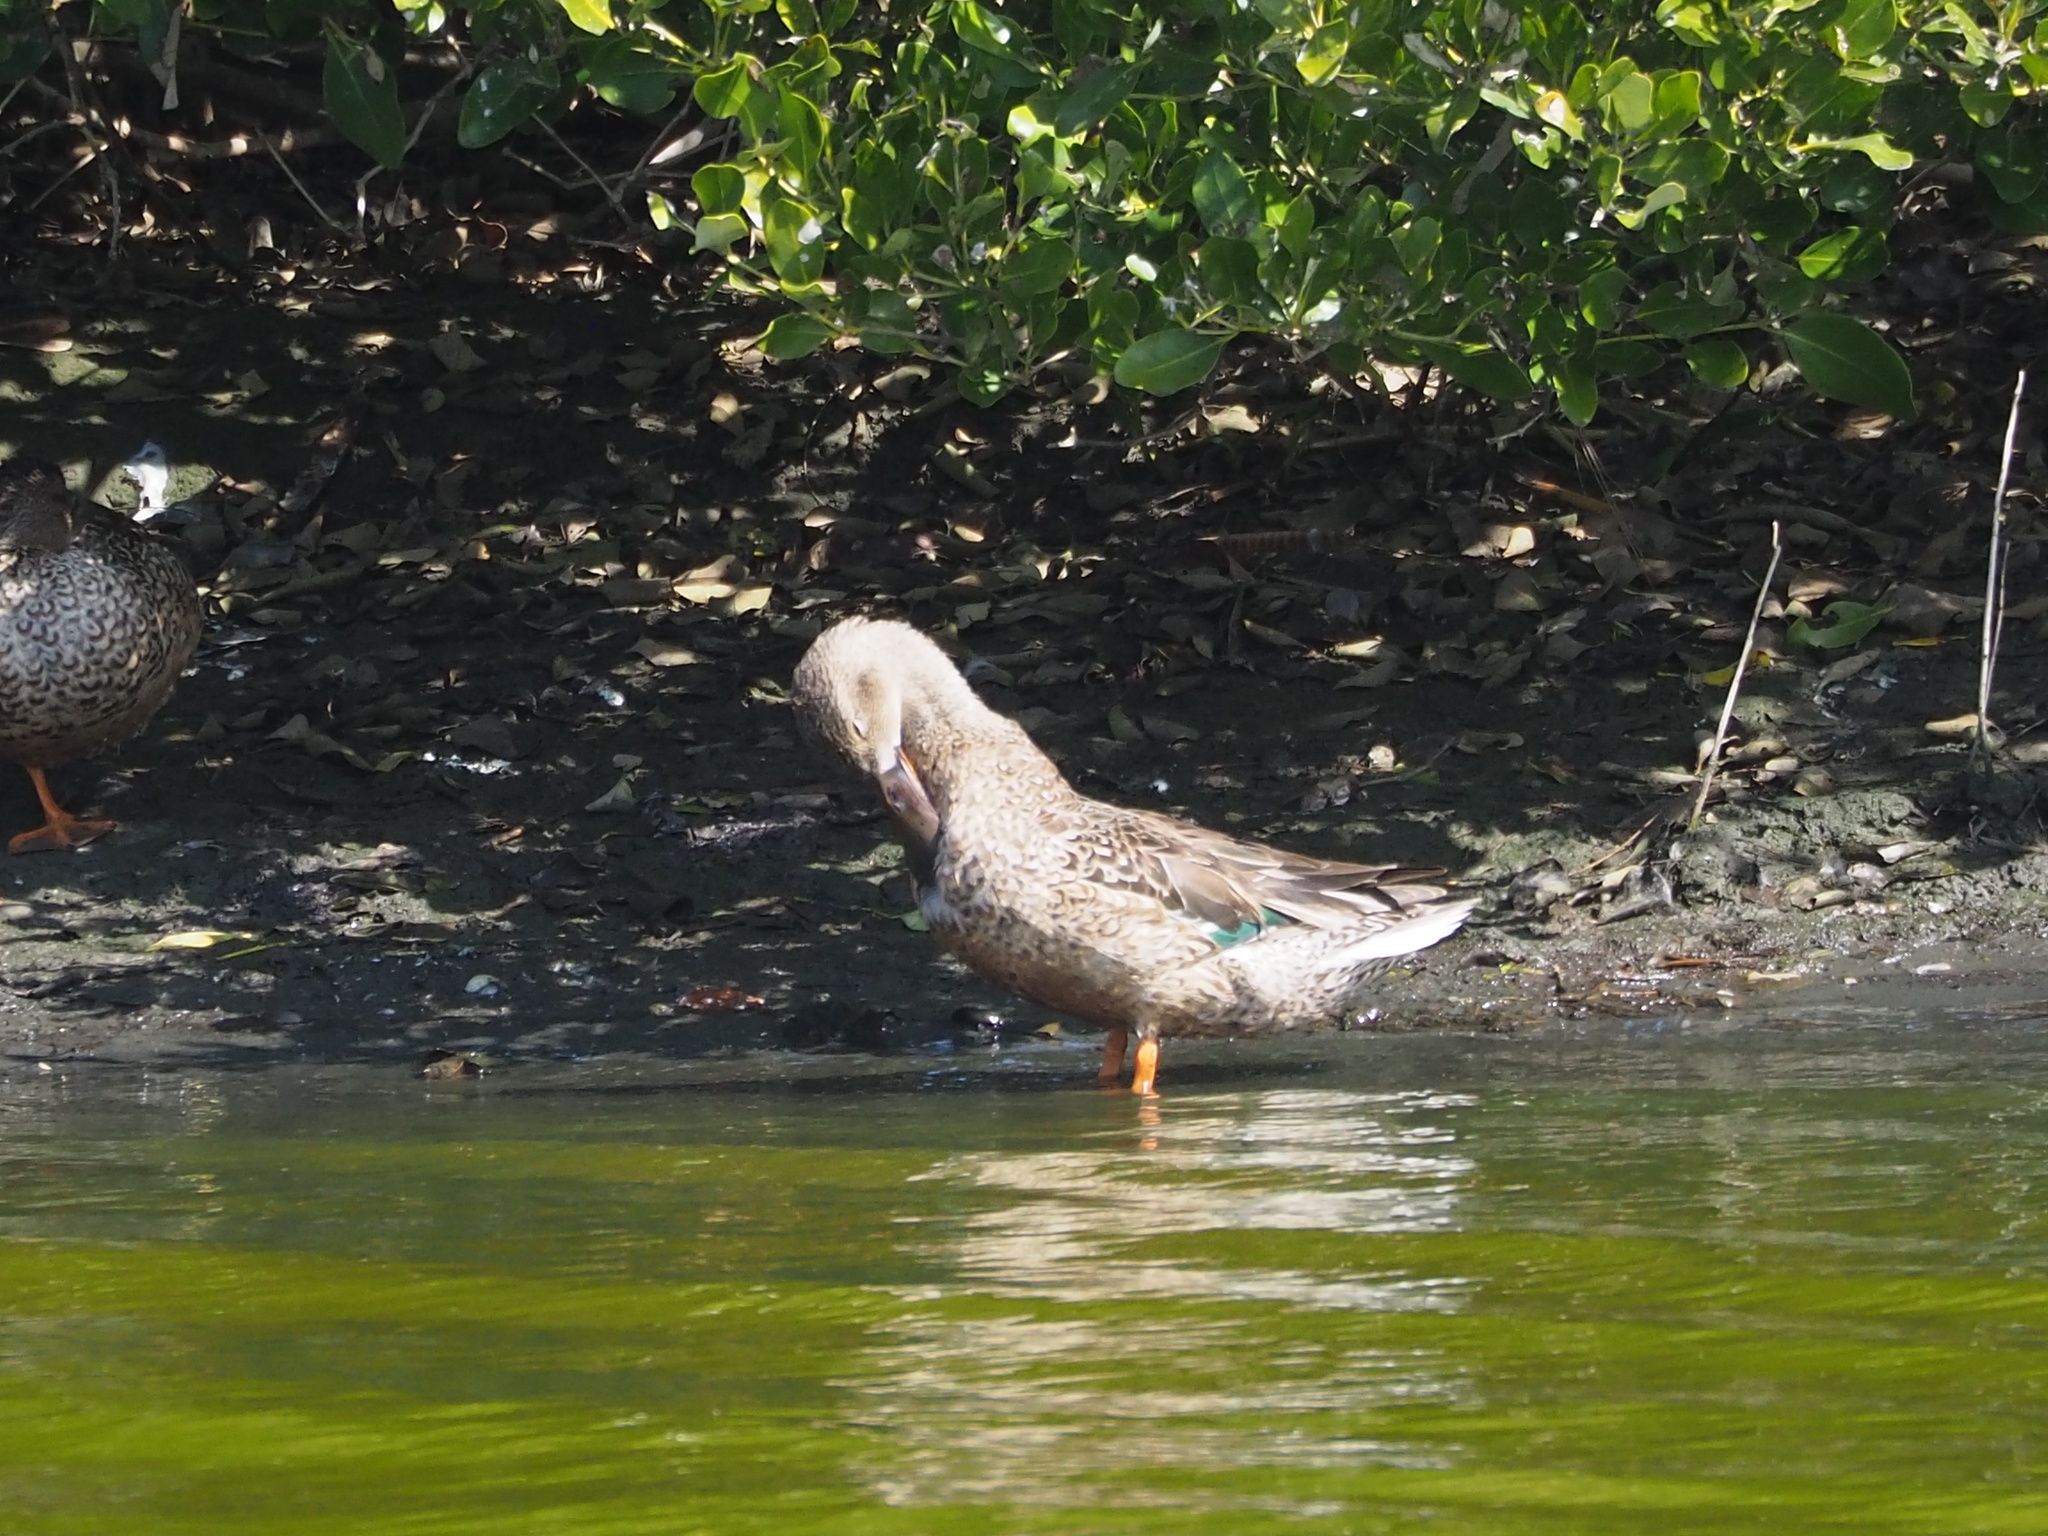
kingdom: Animalia
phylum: Chordata
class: Aves
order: Anseriformes
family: Anatidae
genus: Spatula
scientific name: Spatula clypeata
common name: Northern shoveler
